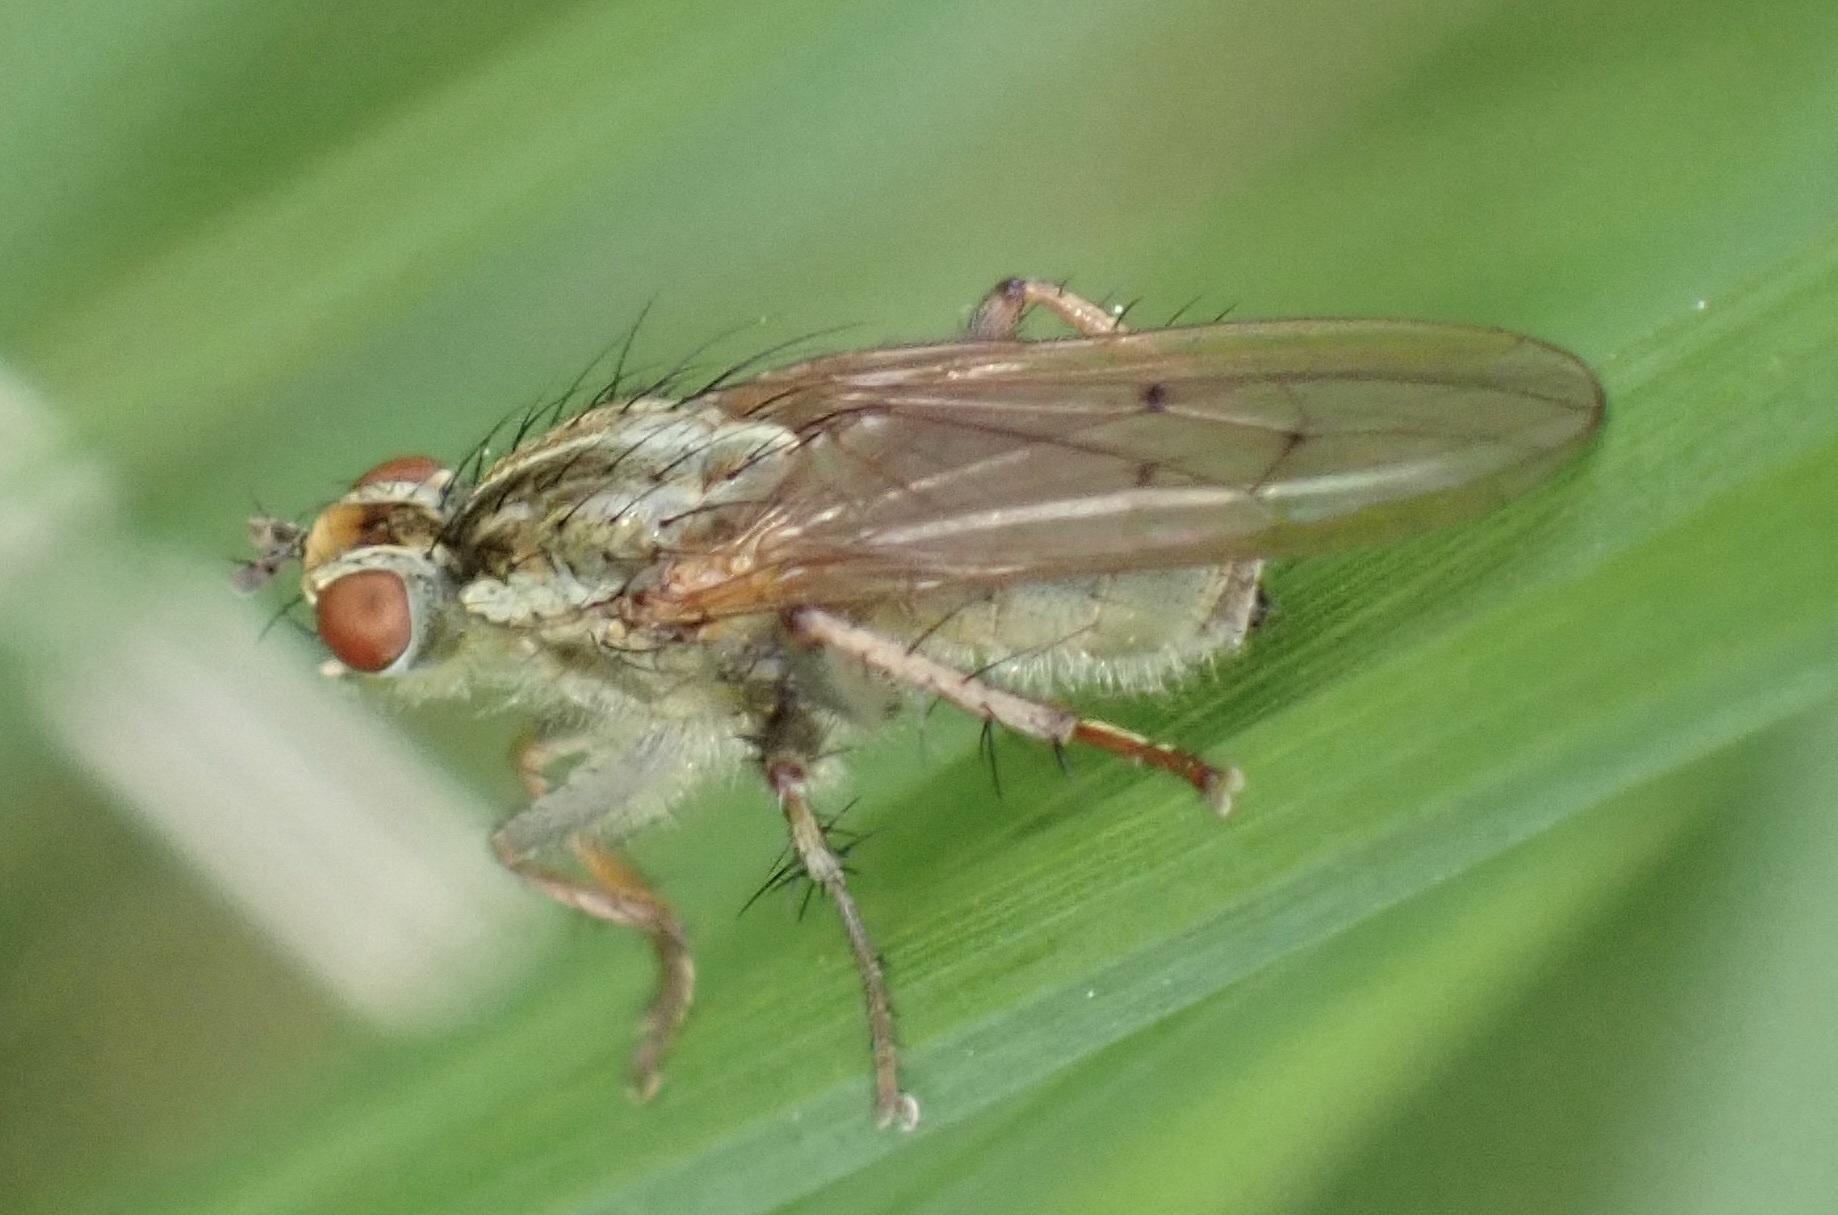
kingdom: Animalia
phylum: Arthropoda
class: Insecta
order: Diptera
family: Scathophagidae
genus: Scathophaga
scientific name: Scathophaga stercoraria
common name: Yellow dung fly
